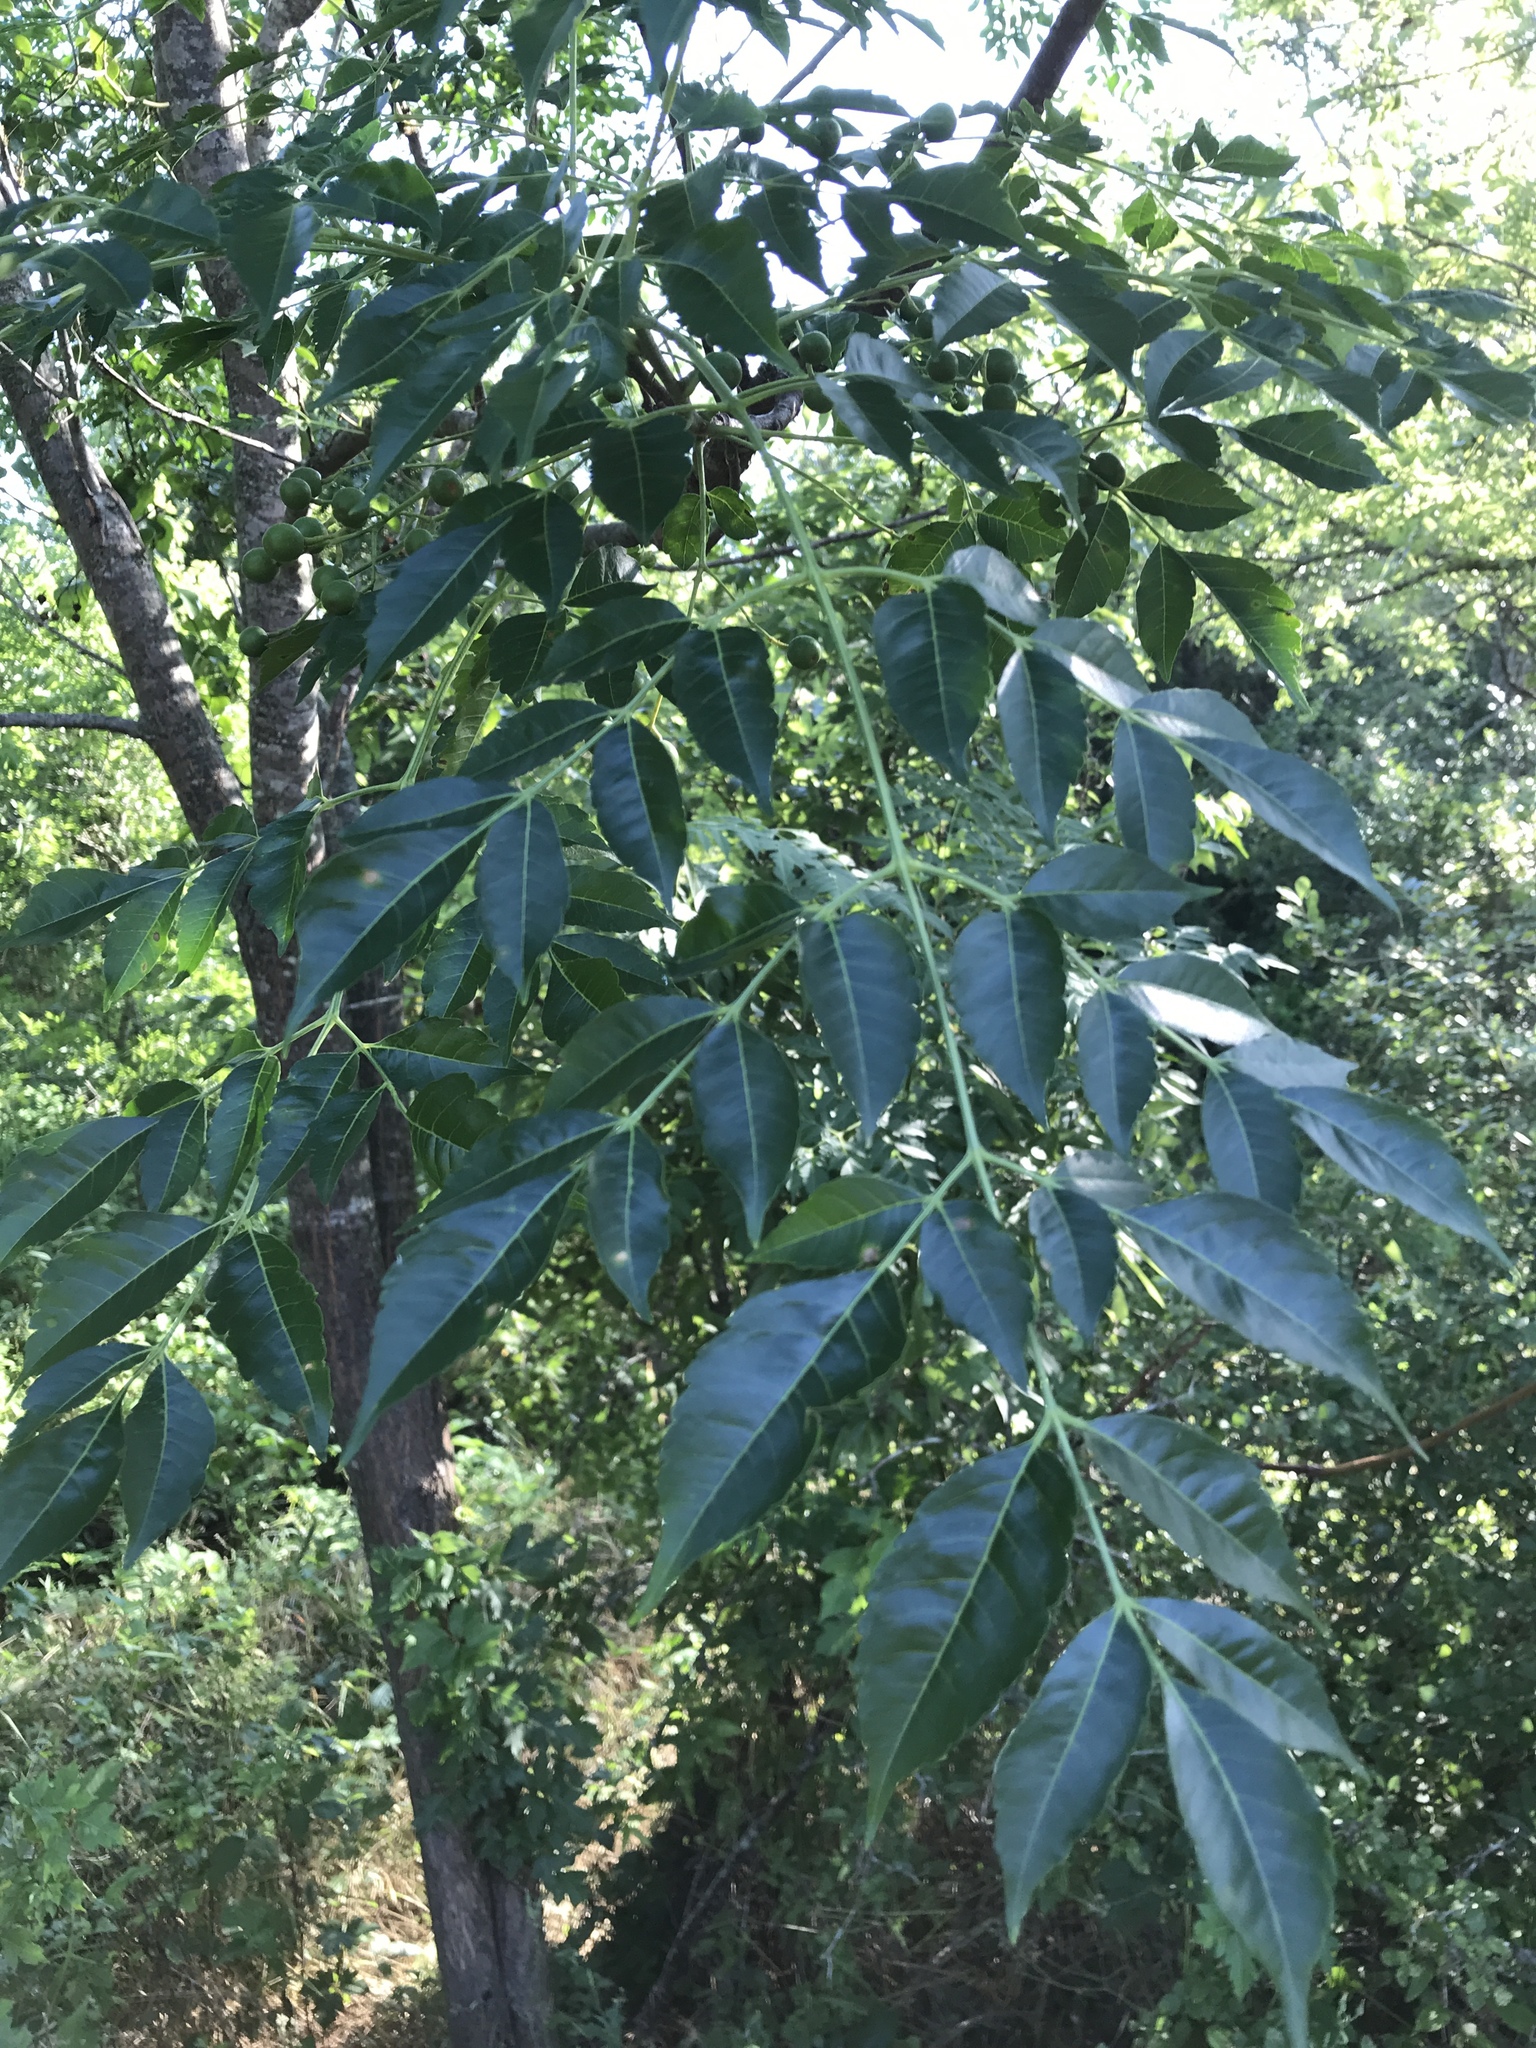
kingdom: Plantae
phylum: Tracheophyta
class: Magnoliopsida
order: Sapindales
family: Meliaceae
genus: Melia
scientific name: Melia azedarach
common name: Chinaberrytree
